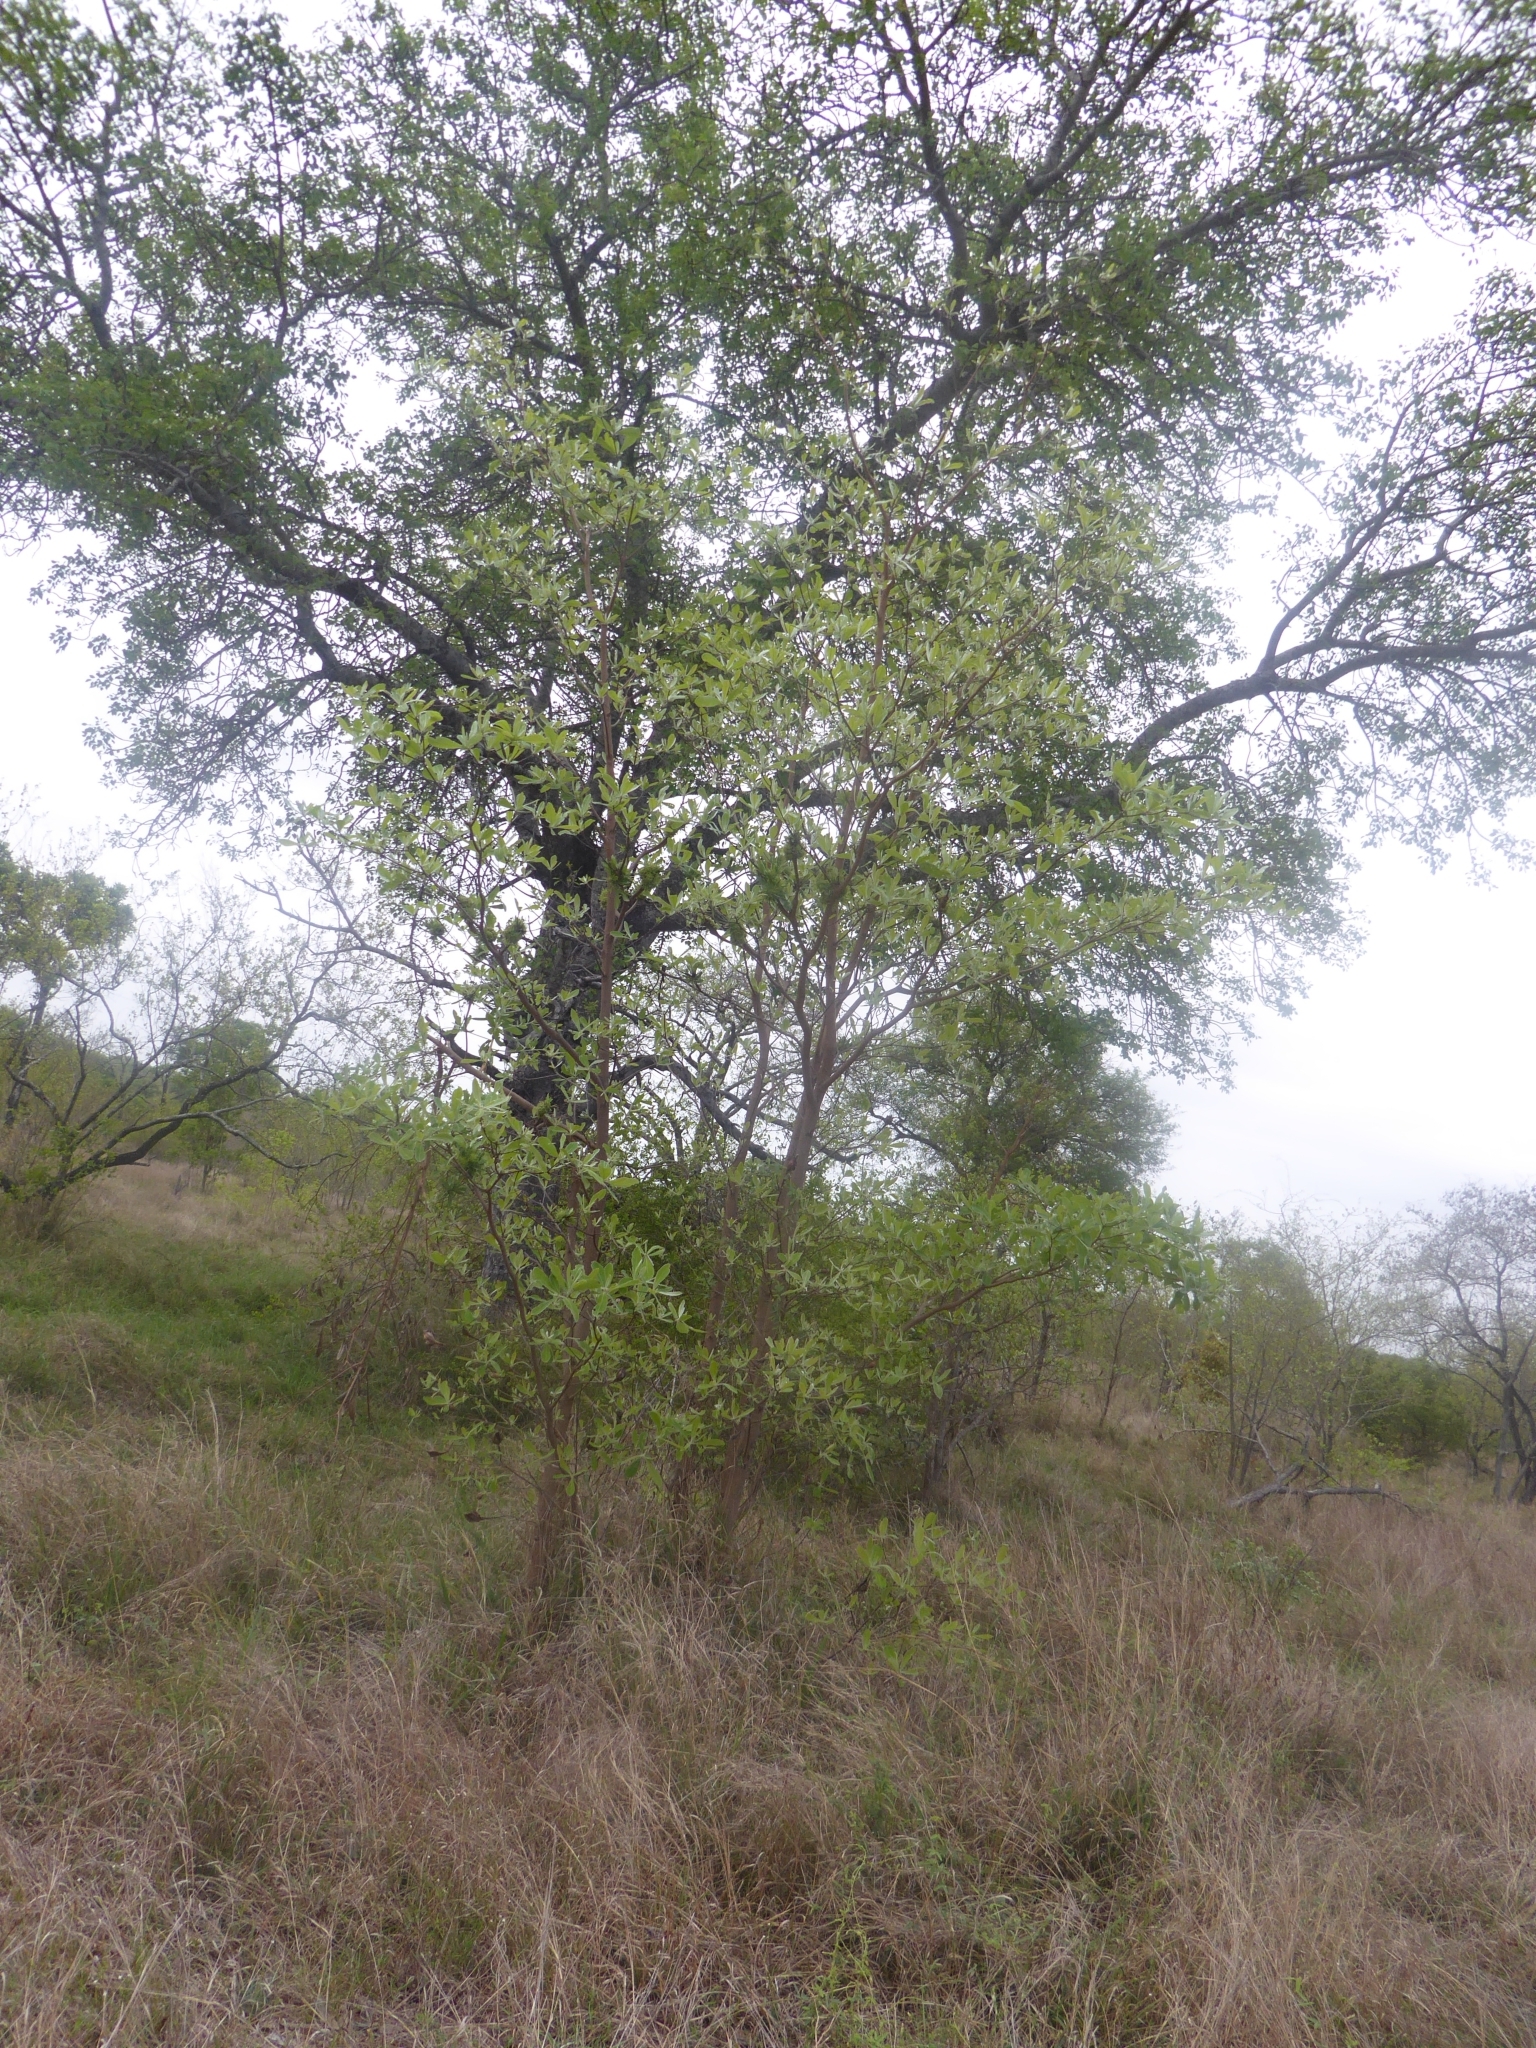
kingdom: Plantae
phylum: Tracheophyta
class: Magnoliopsida
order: Myrtales
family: Combretaceae
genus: Terminalia
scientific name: Terminalia sericea
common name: Clusterleaf
